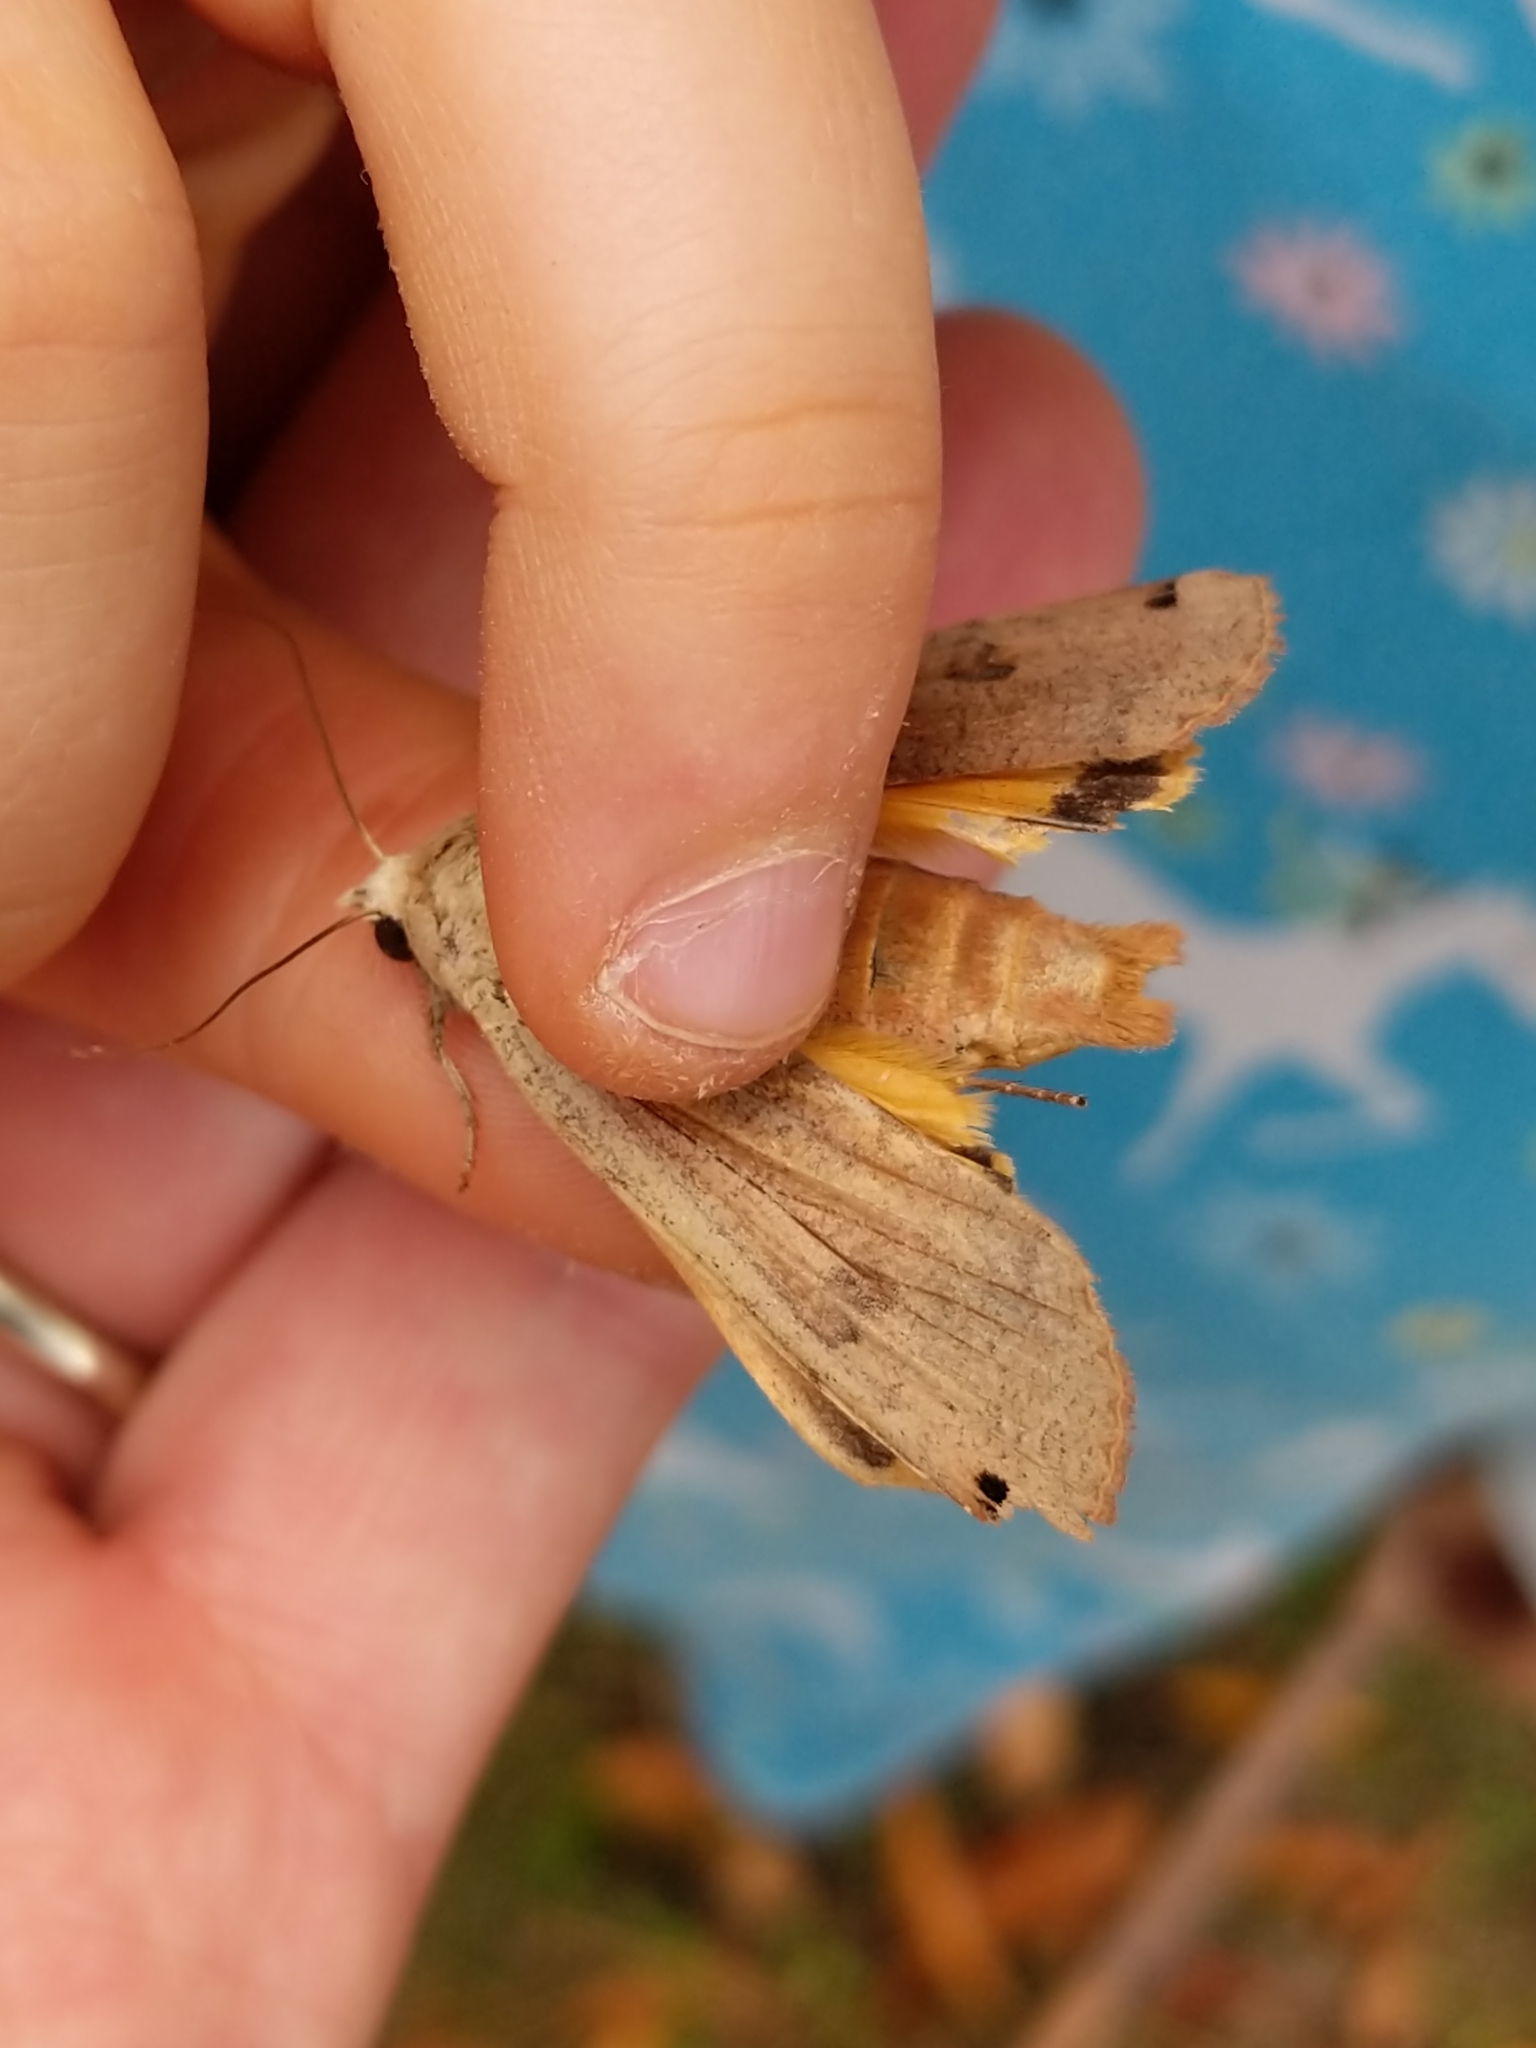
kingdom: Animalia
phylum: Arthropoda
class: Insecta
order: Lepidoptera
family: Noctuidae
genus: Noctua
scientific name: Noctua pronuba
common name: Large yellow underwing
